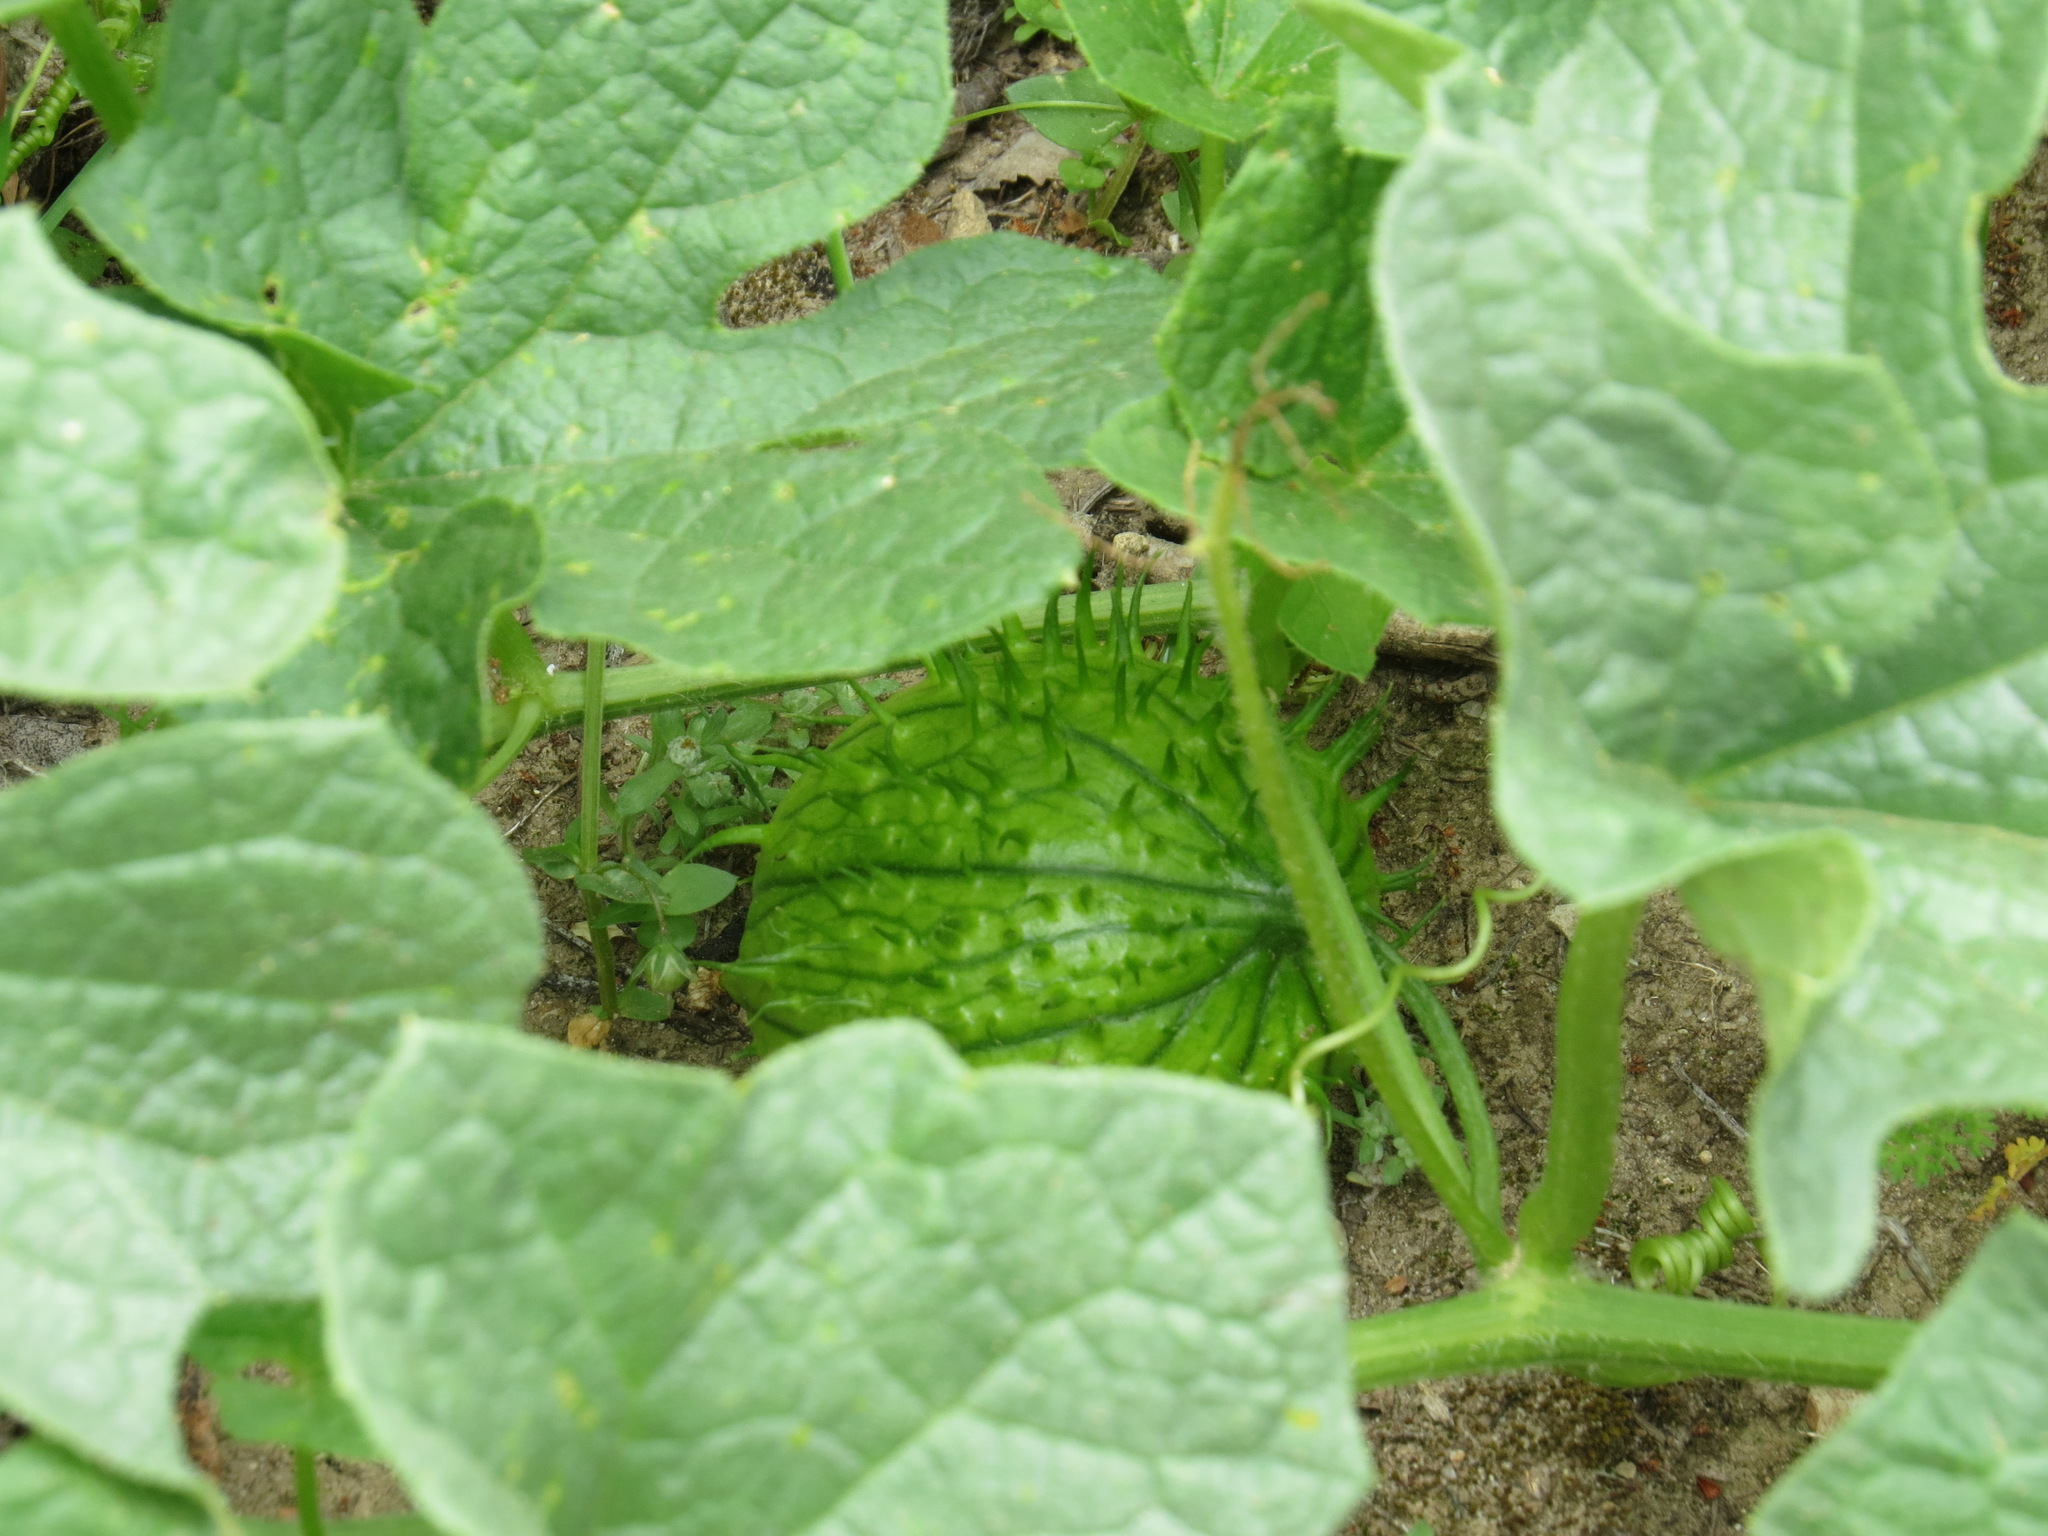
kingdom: Plantae
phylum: Tracheophyta
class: Magnoliopsida
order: Cucurbitales
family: Cucurbitaceae
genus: Marah
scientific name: Marah oregana
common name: Coastal manroot
